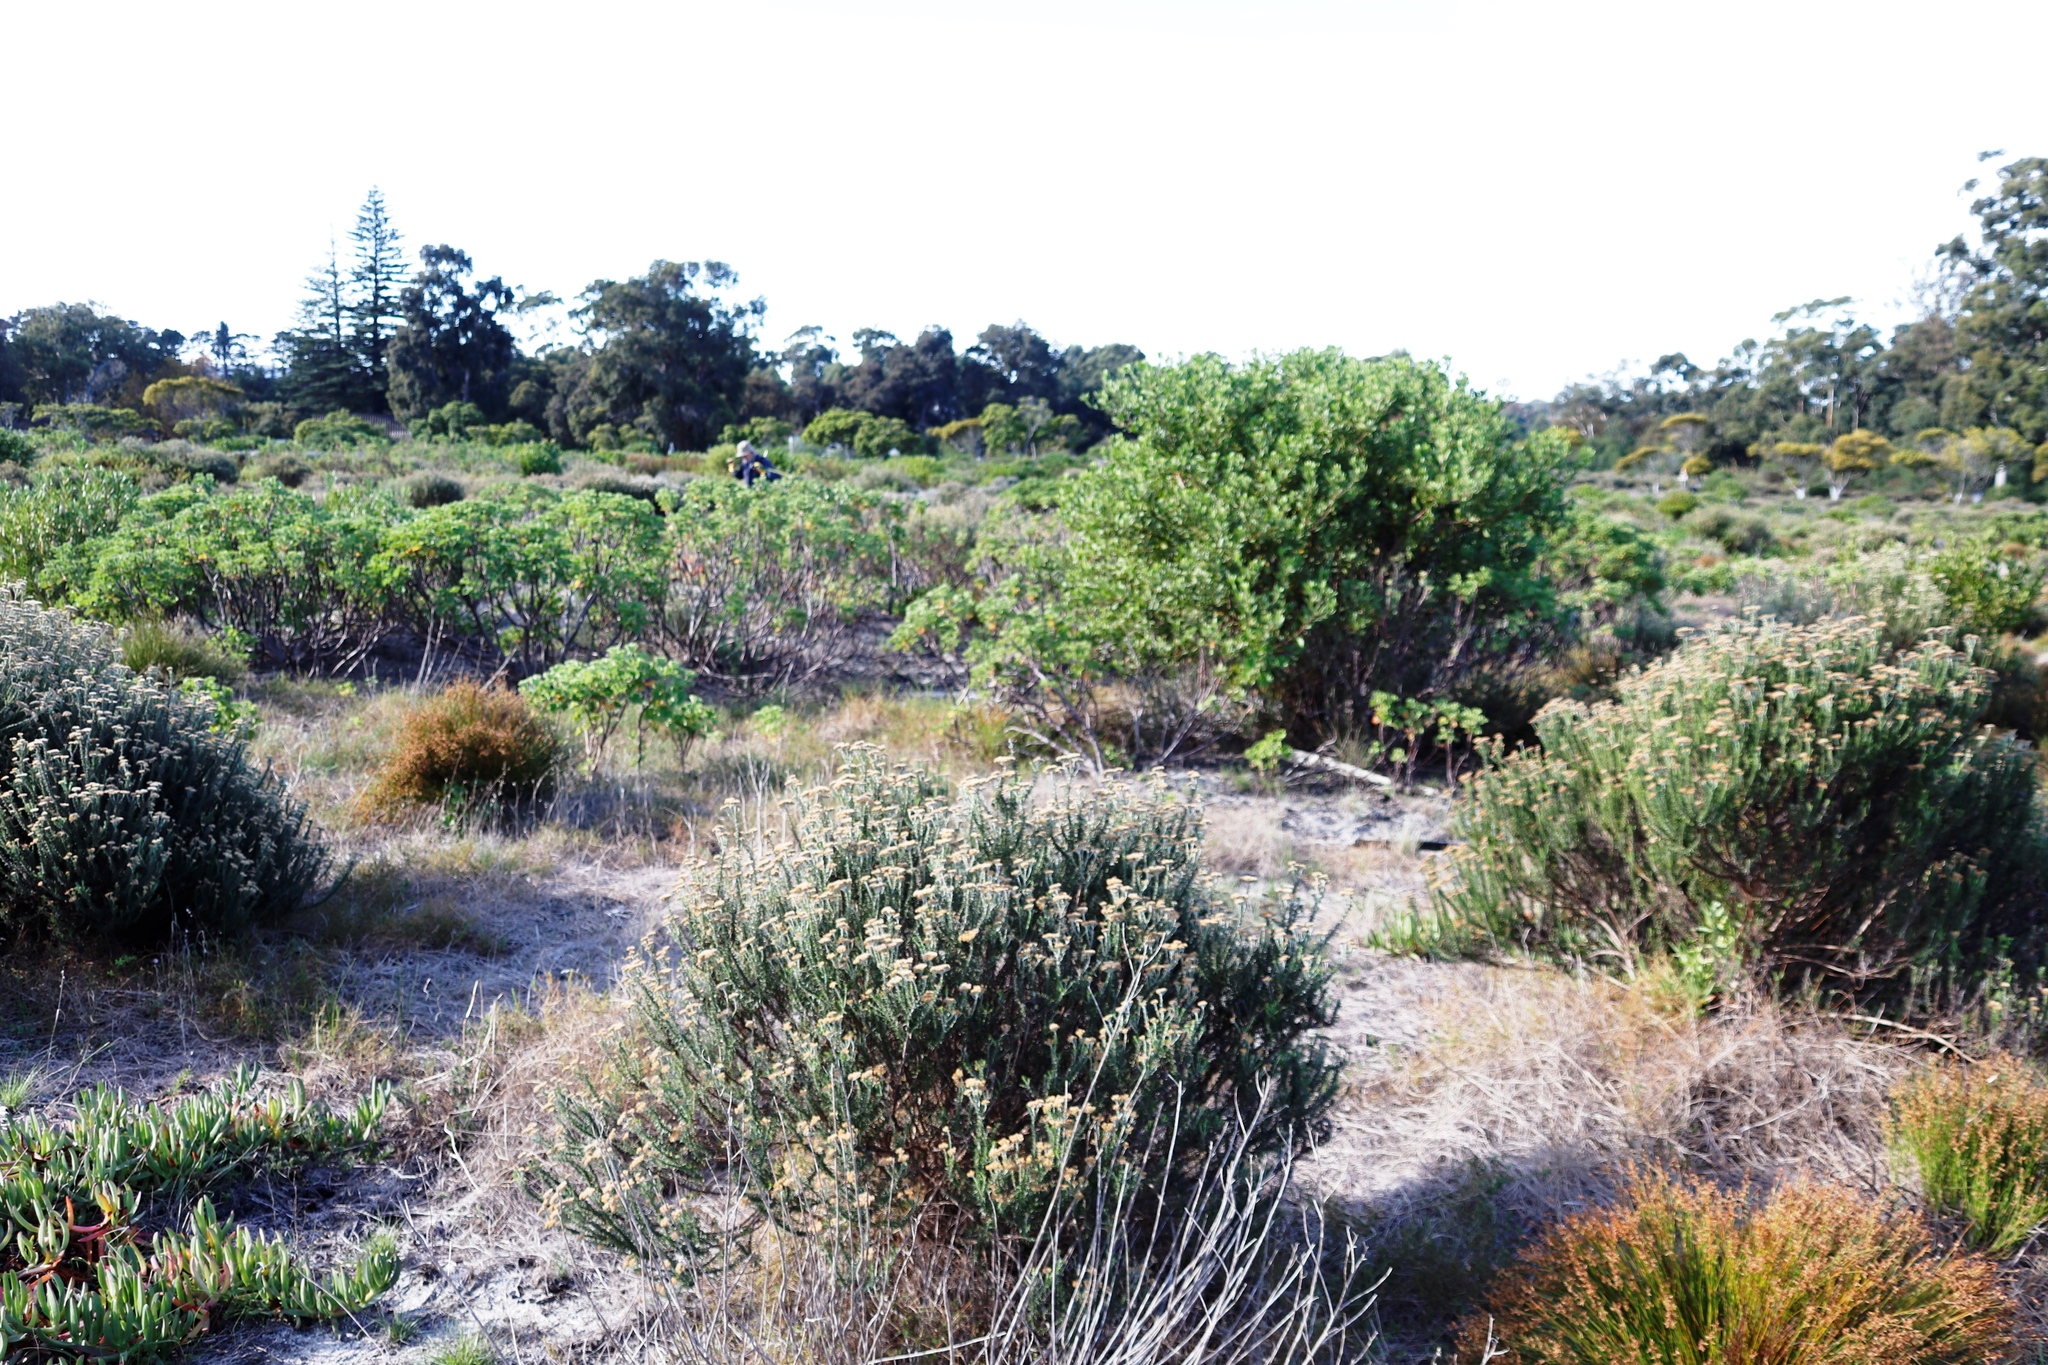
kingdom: Plantae
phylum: Tracheophyta
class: Magnoliopsida
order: Asterales
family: Asteraceae
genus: Metalasia
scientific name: Metalasia densa
